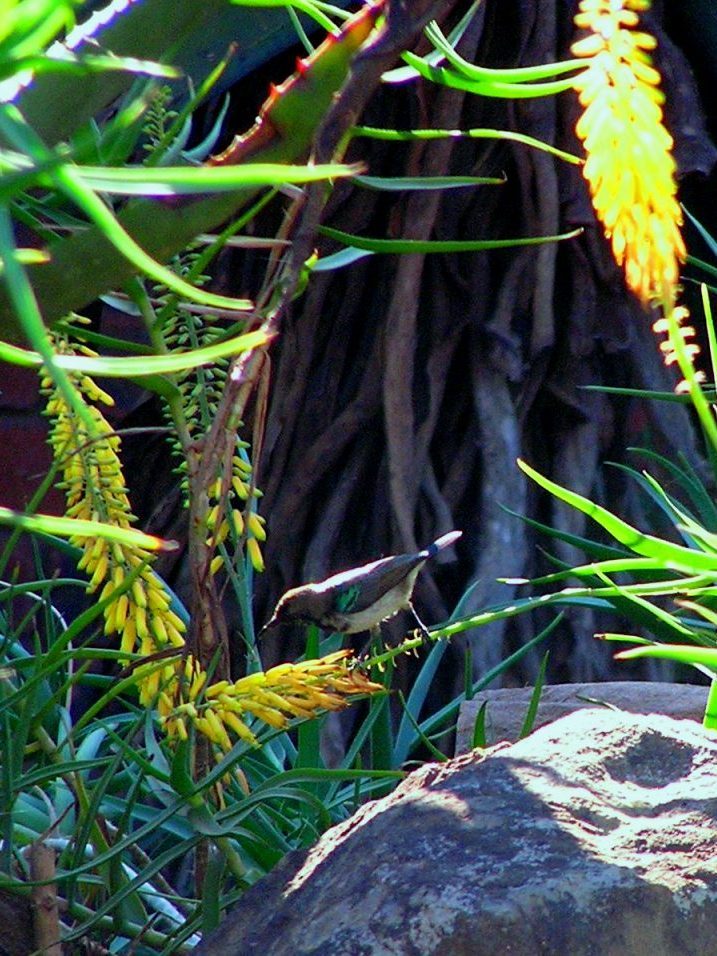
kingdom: Animalia
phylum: Chordata
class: Aves
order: Passeriformes
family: Nectariniidae
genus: Cinnyris
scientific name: Cinnyris talatala
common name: White-bellied sunbird
